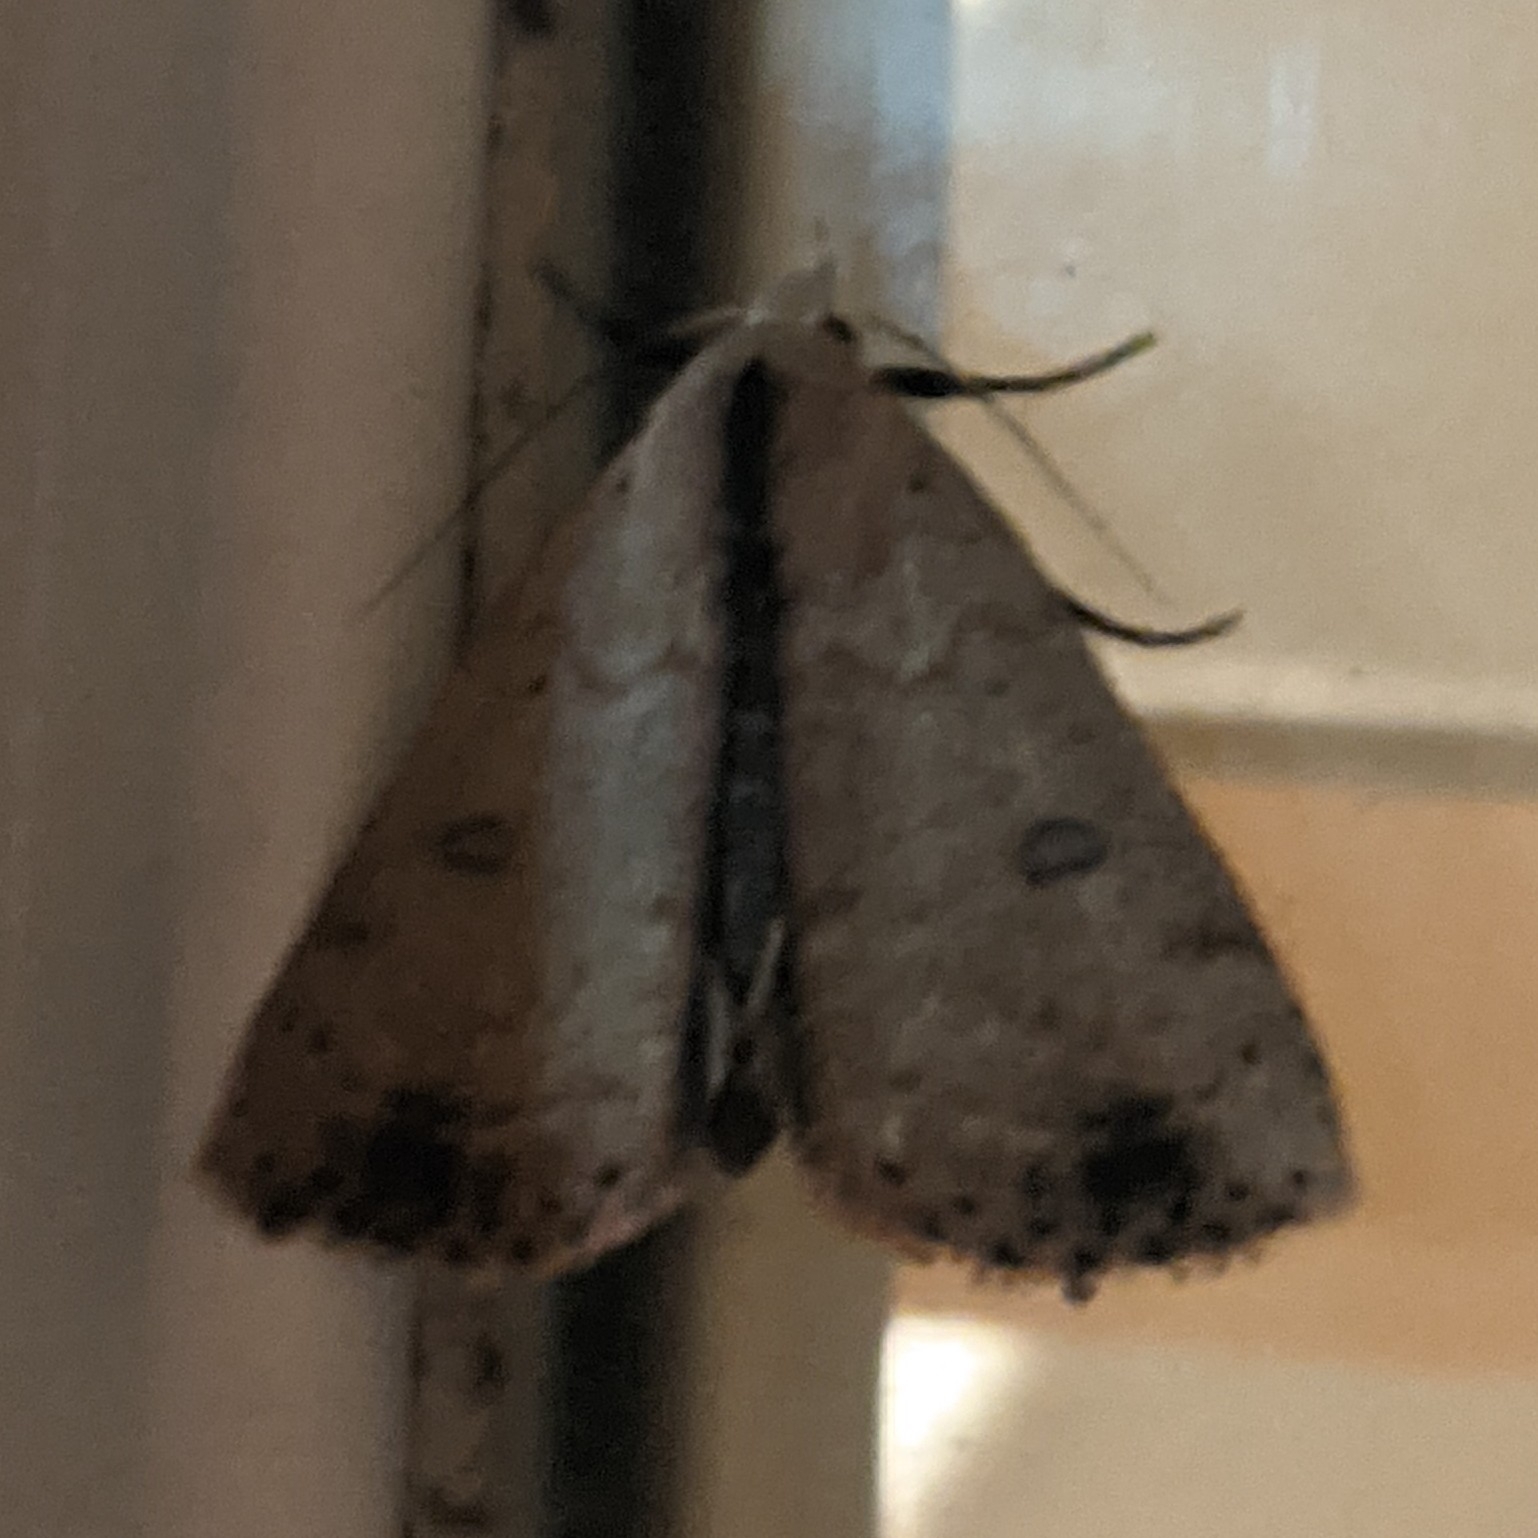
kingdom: Animalia
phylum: Arthropoda
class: Insecta
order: Lepidoptera
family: Erebidae
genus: Scolecocampa
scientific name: Scolecocampa liburna
